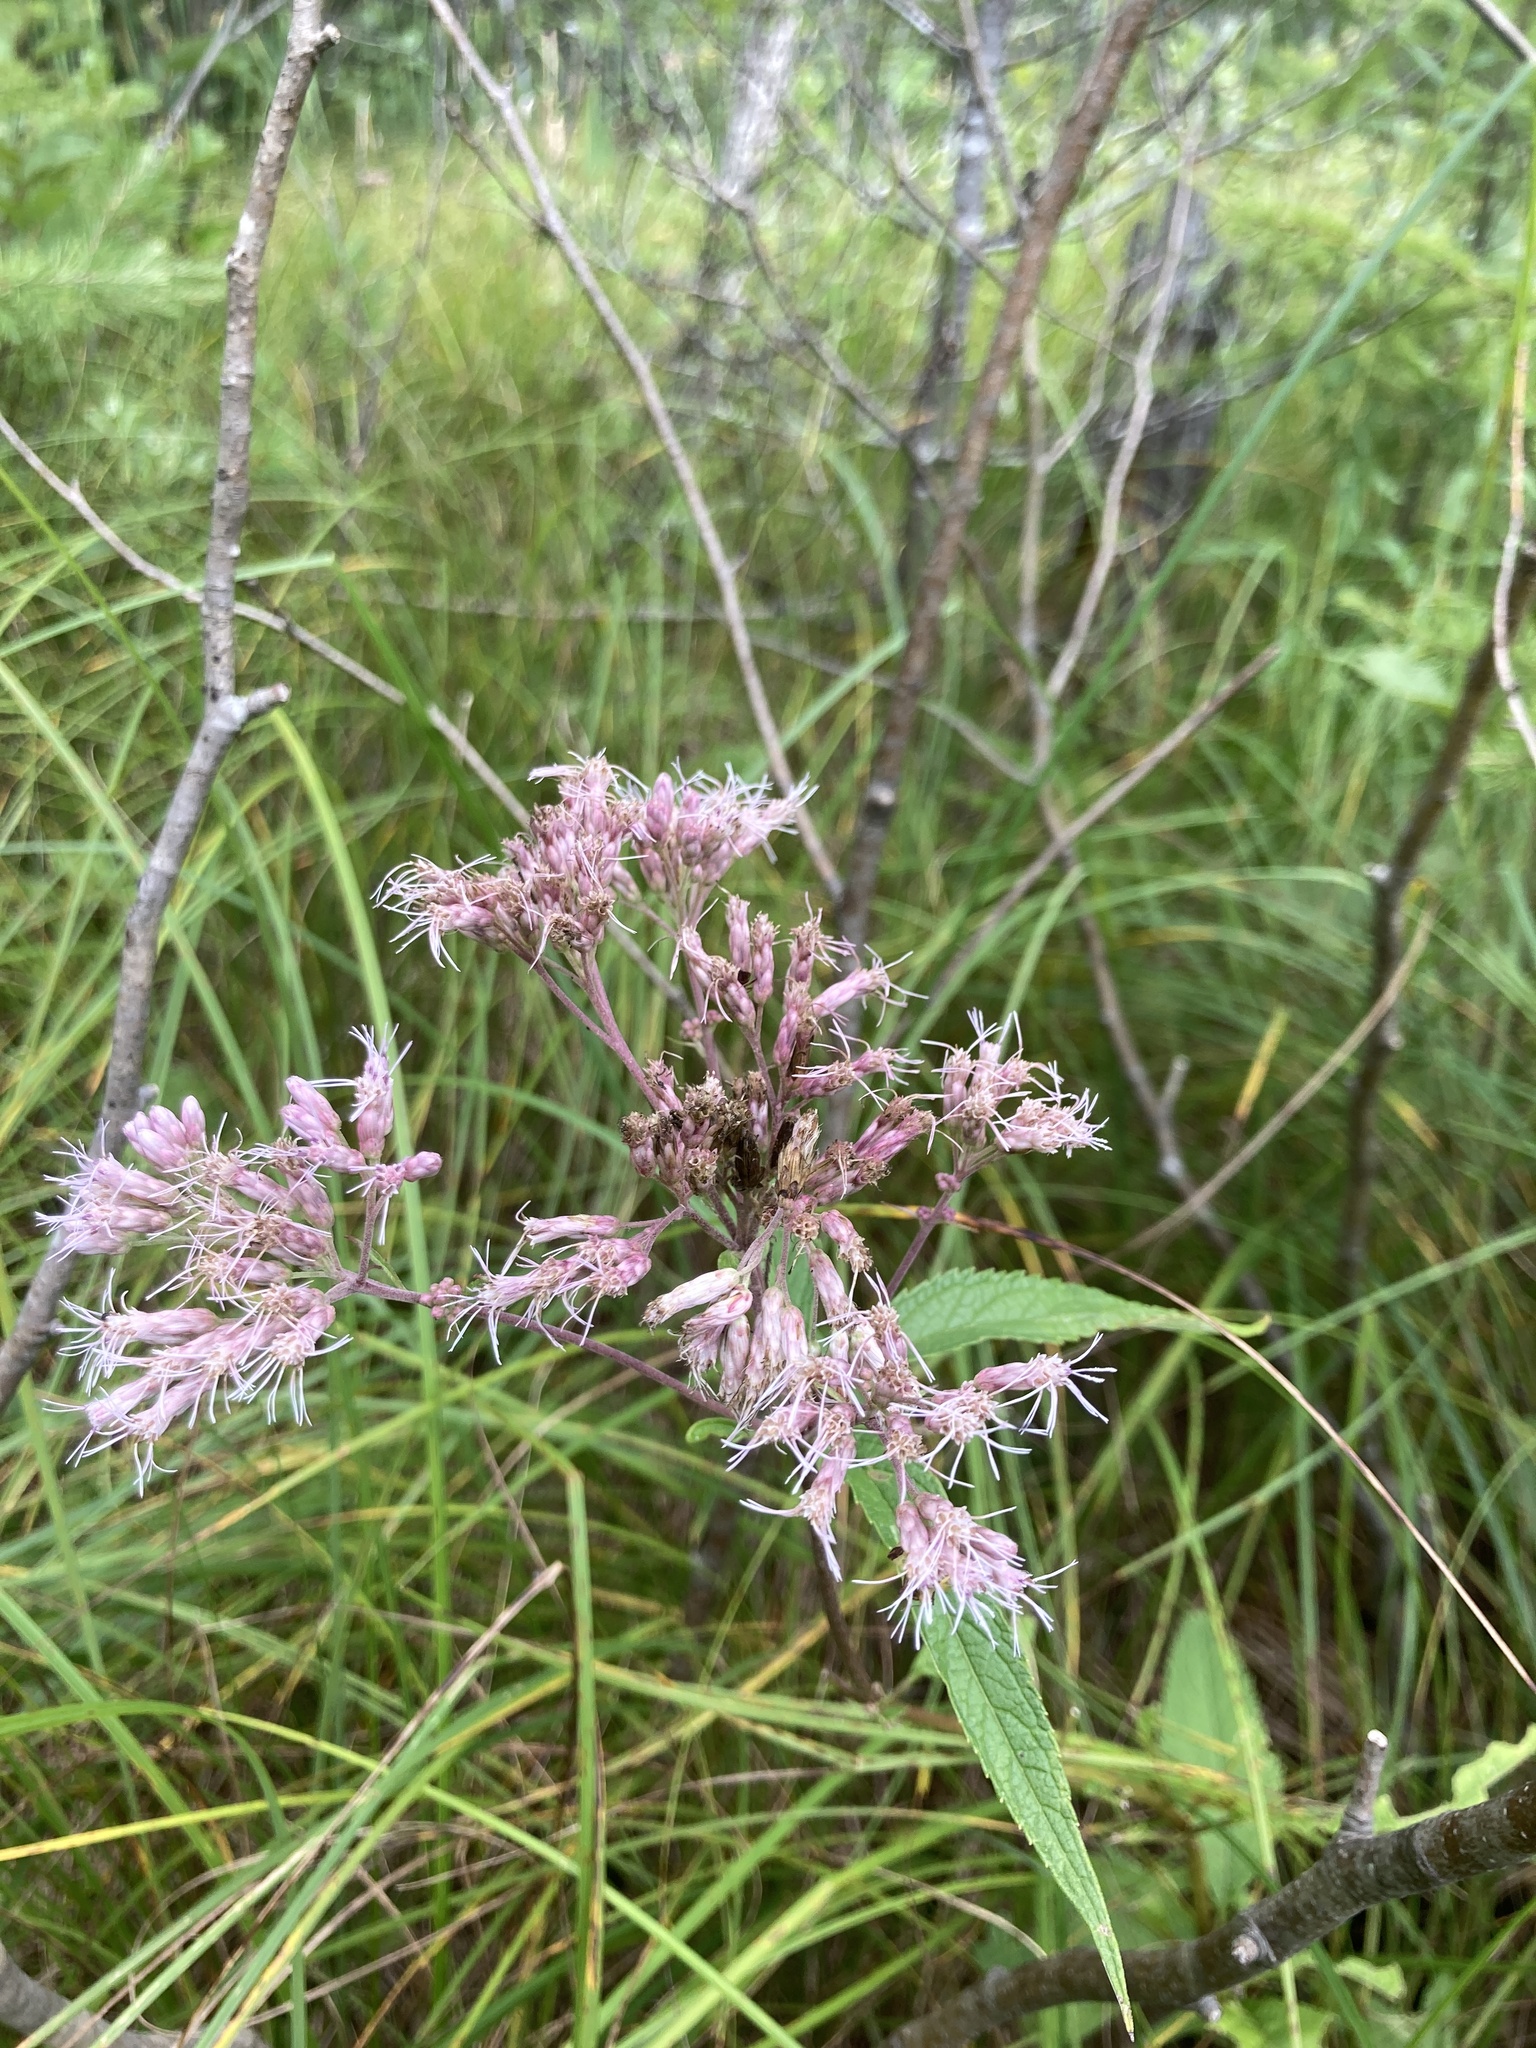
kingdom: Plantae
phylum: Tracheophyta
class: Magnoliopsida
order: Asterales
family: Asteraceae
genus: Eutrochium
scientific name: Eutrochium maculatum
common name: Spotted joe pye weed
